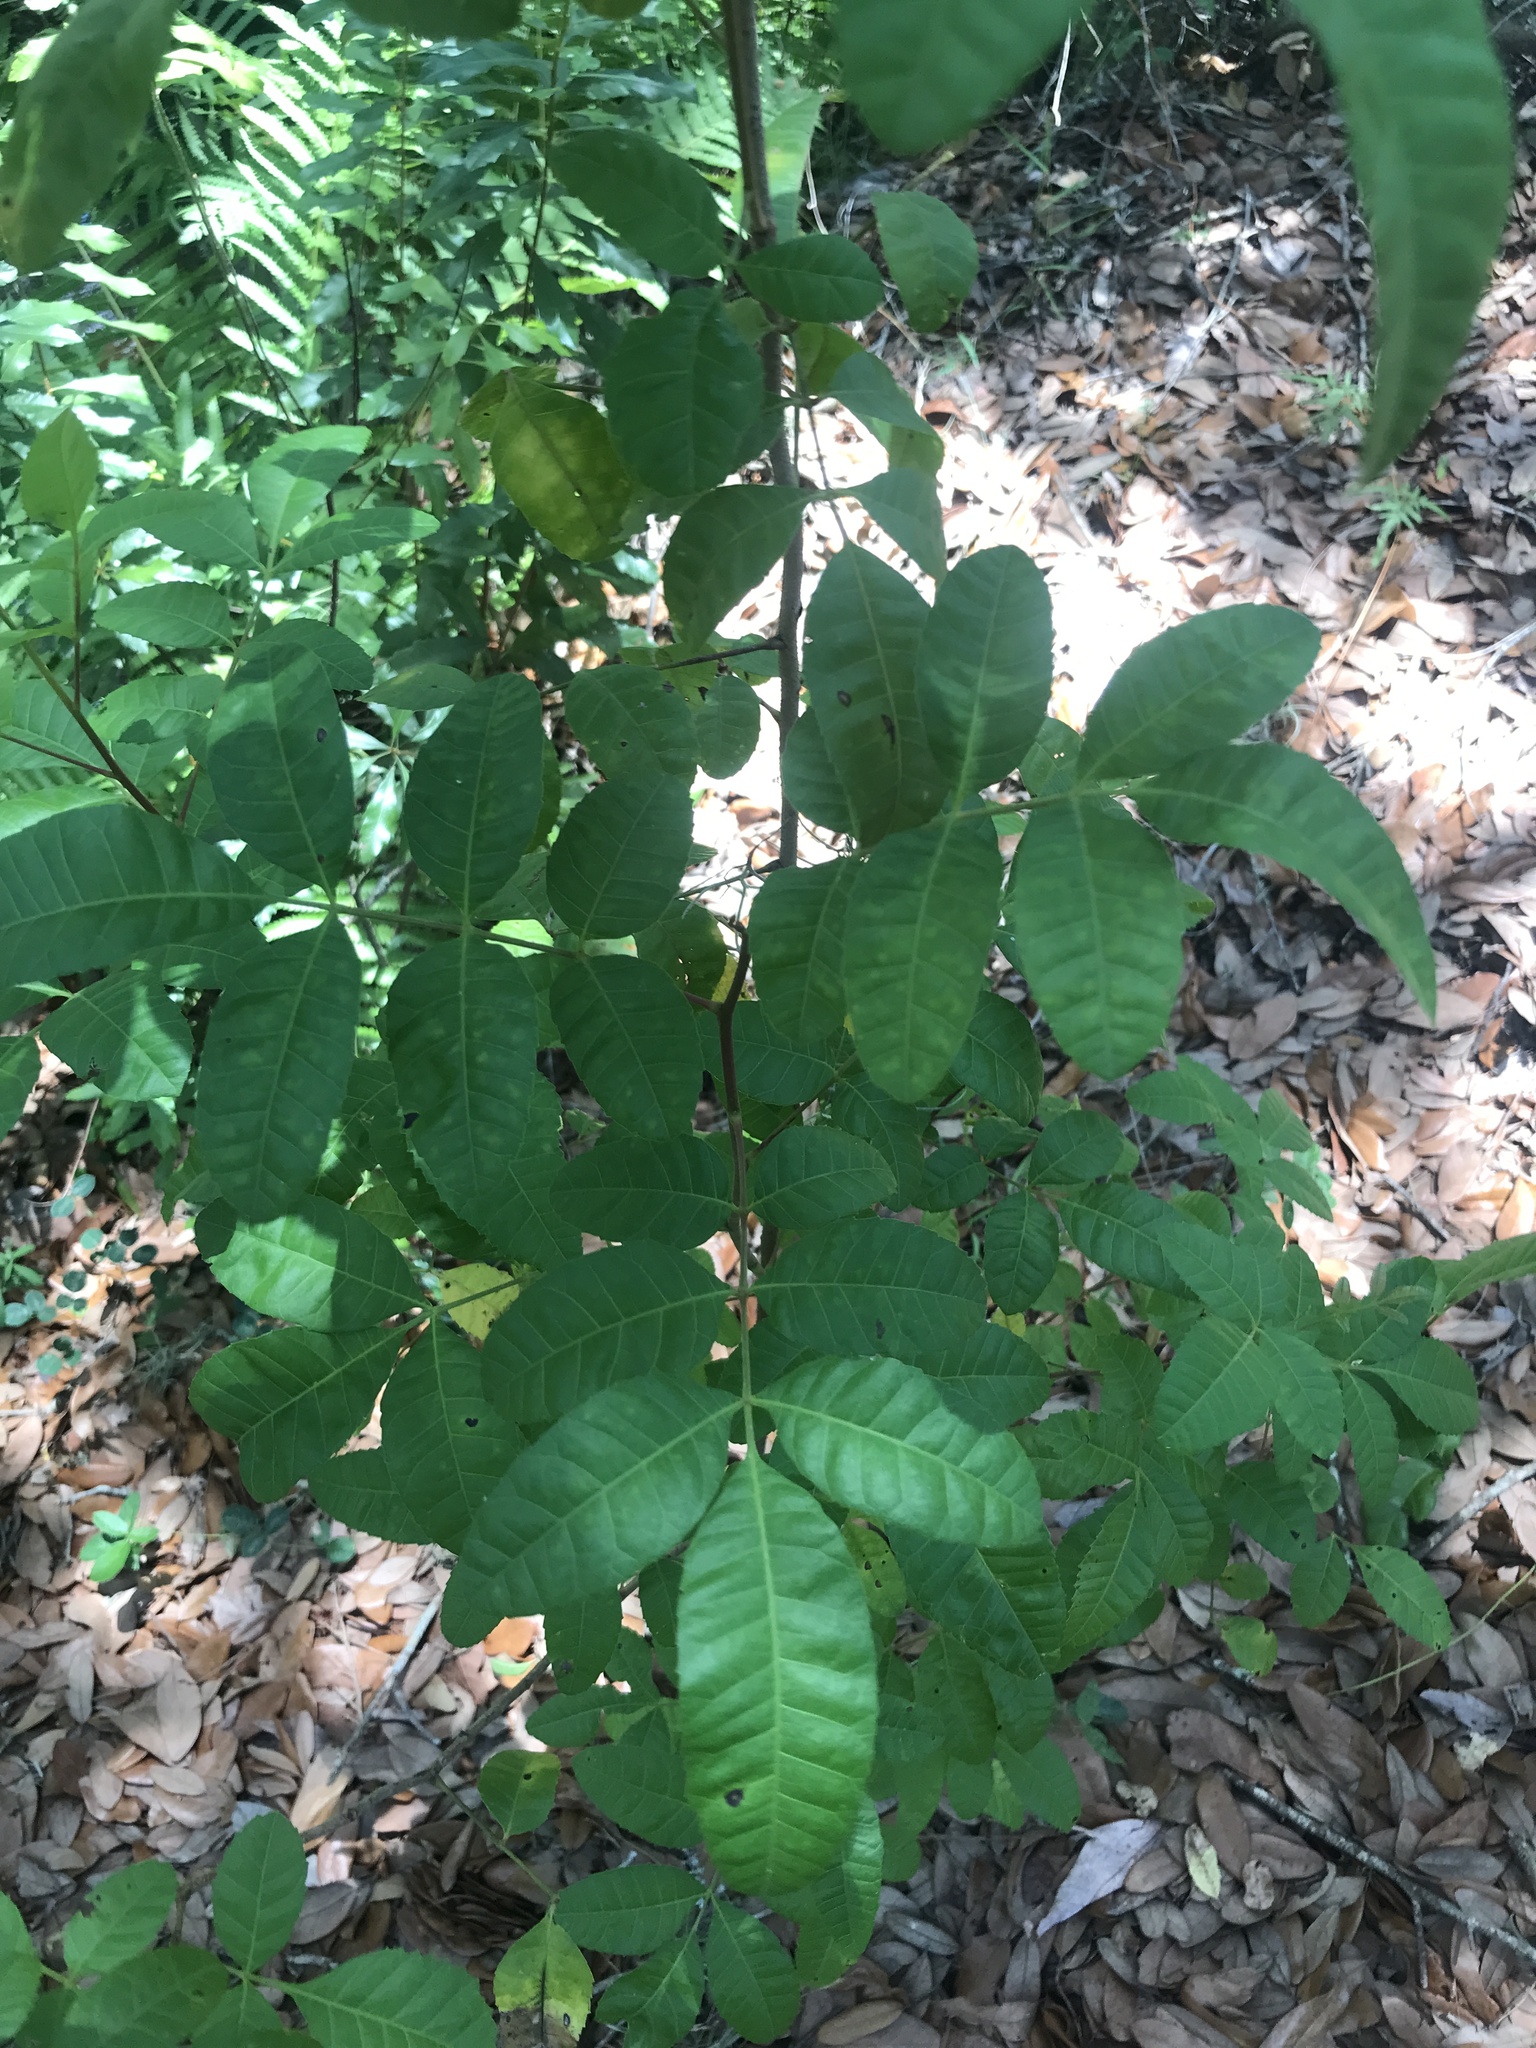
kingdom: Plantae
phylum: Tracheophyta
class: Magnoliopsida
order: Sapindales
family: Anacardiaceae
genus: Schinus
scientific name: Schinus terebinthifolia
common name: Brazilian peppertree
